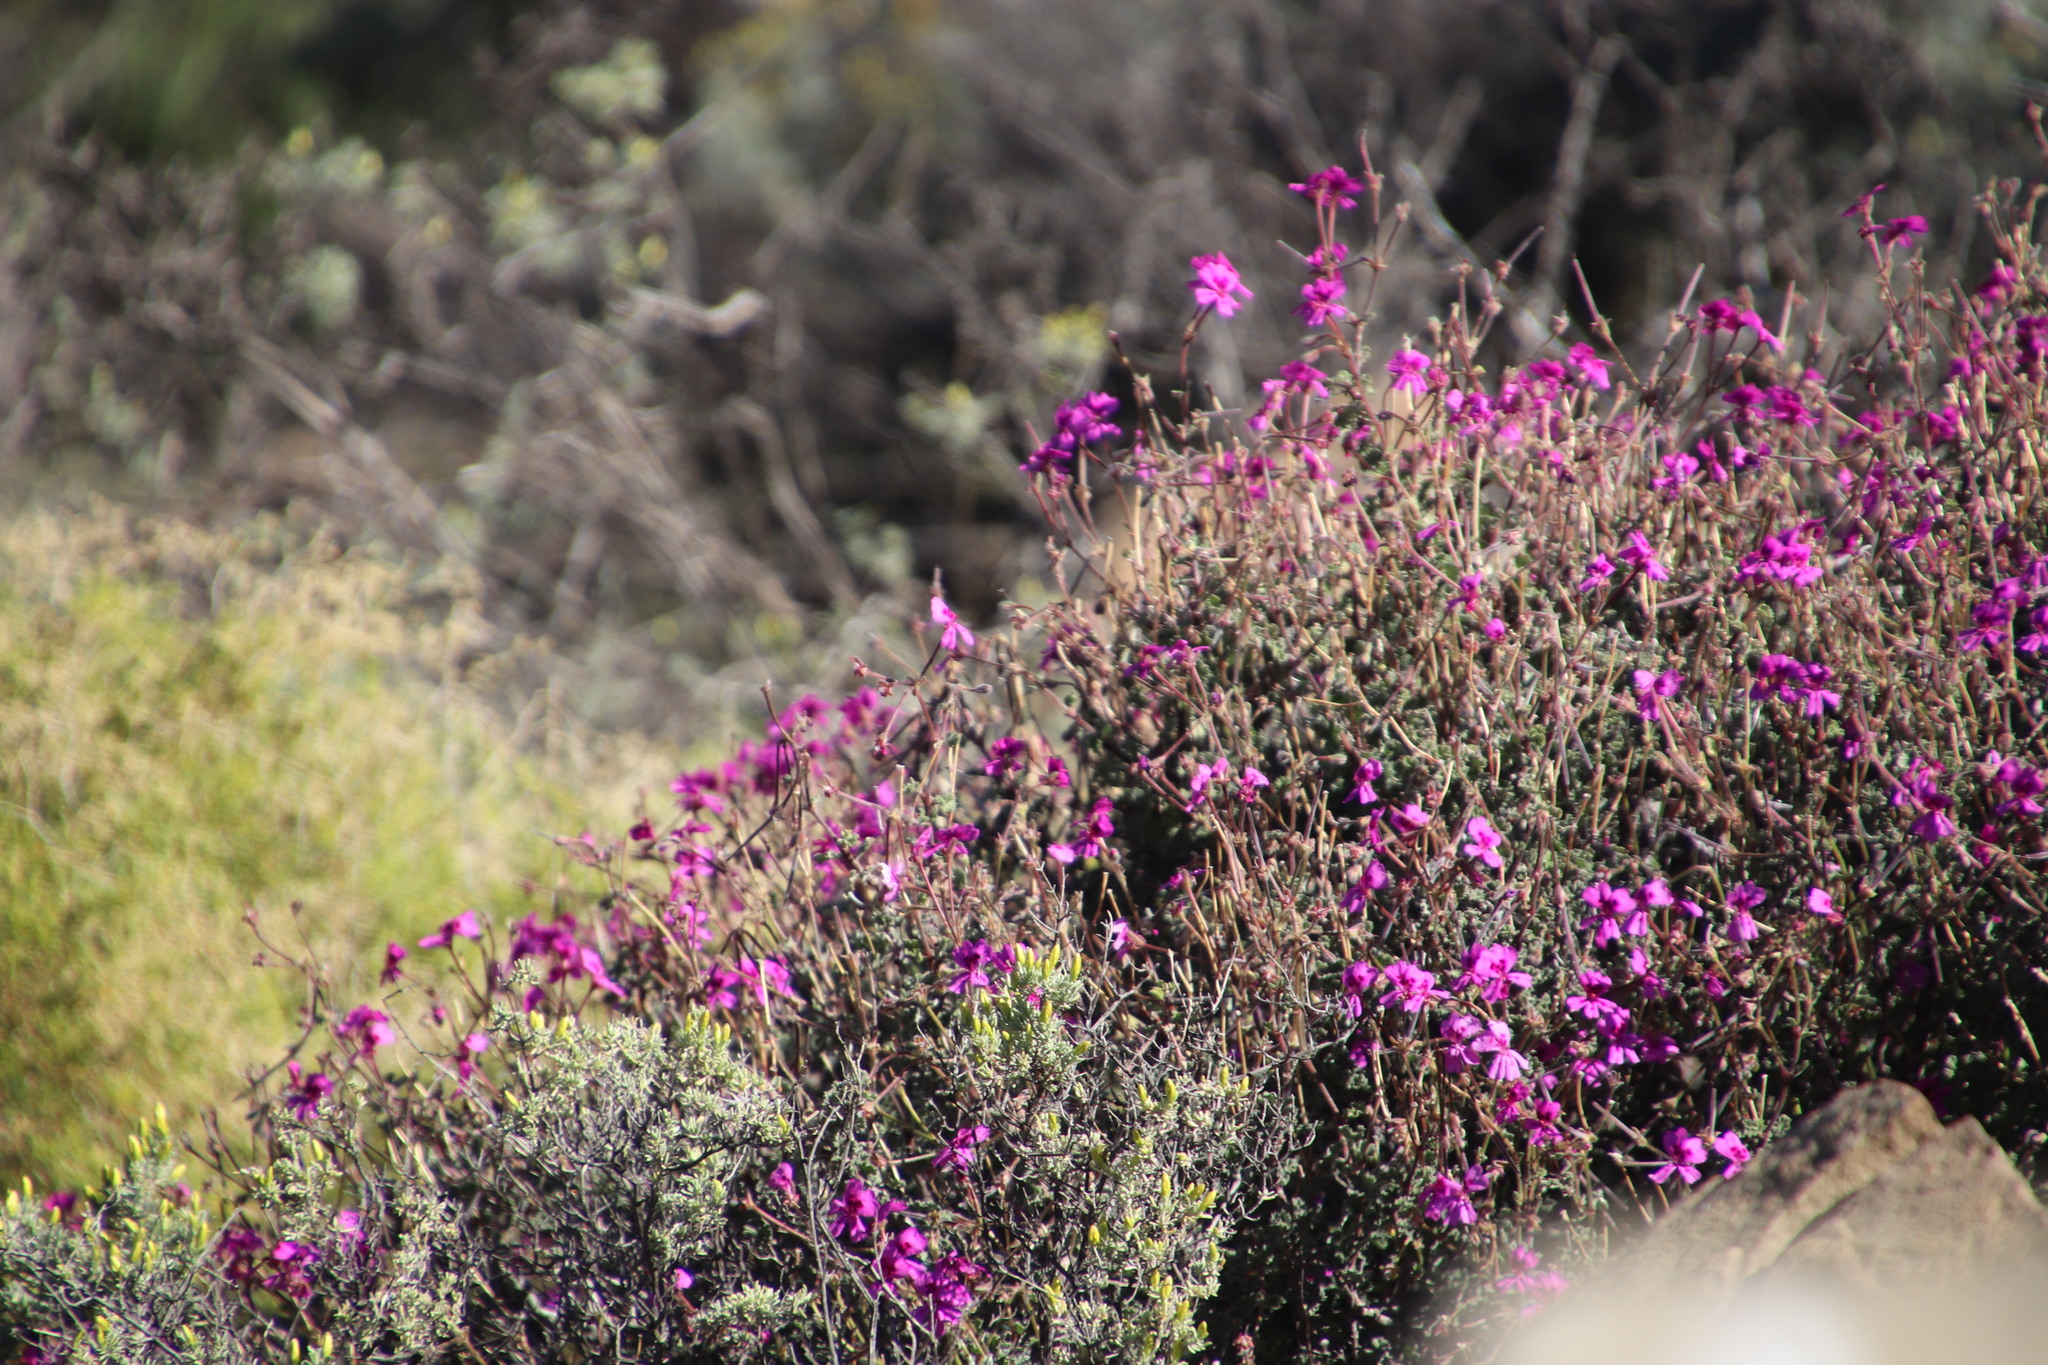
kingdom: Plantae
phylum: Tracheophyta
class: Magnoliopsida
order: Geraniales
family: Geraniaceae
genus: Pelargonium
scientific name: Pelargonium magenteum
